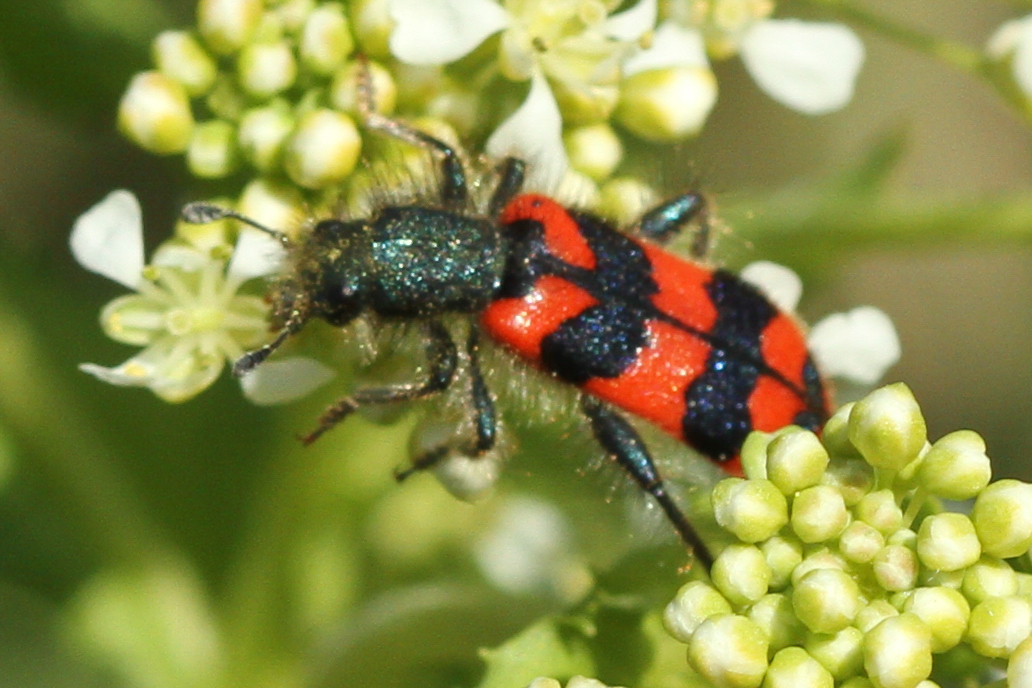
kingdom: Animalia
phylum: Arthropoda
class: Insecta
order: Coleoptera
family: Cleridae
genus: Trichodes
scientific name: Trichodes alvearius
